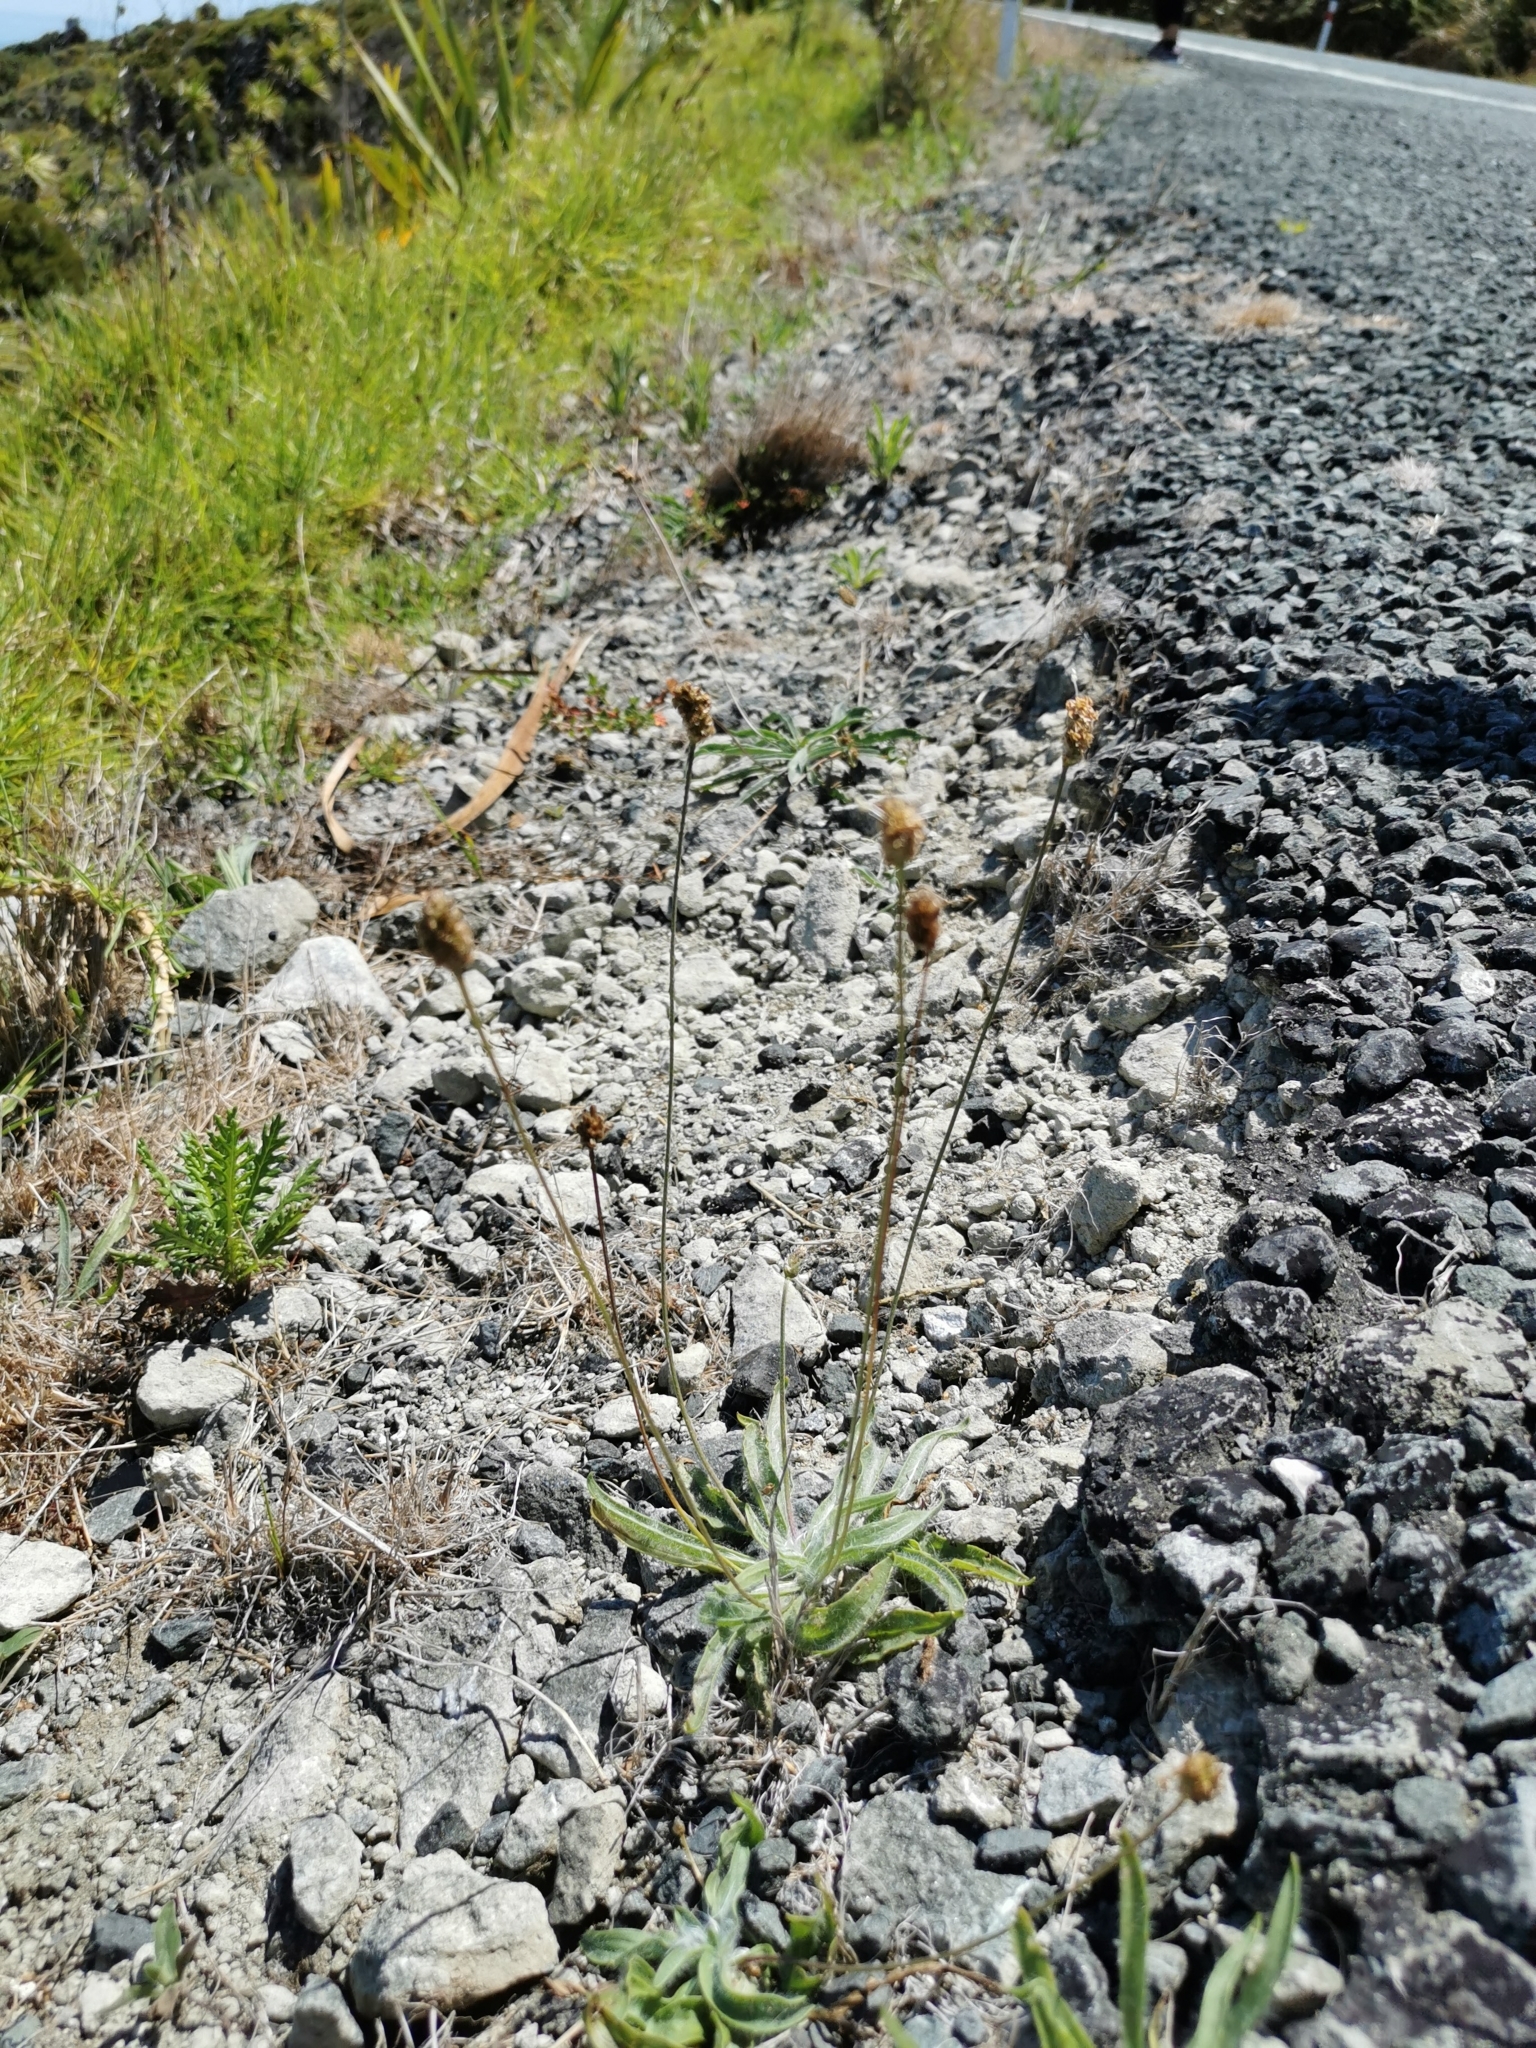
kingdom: Plantae
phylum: Tracheophyta
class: Magnoliopsida
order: Lamiales
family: Plantaginaceae
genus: Plantago
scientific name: Plantago lanceolata
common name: Ribwort plantain
